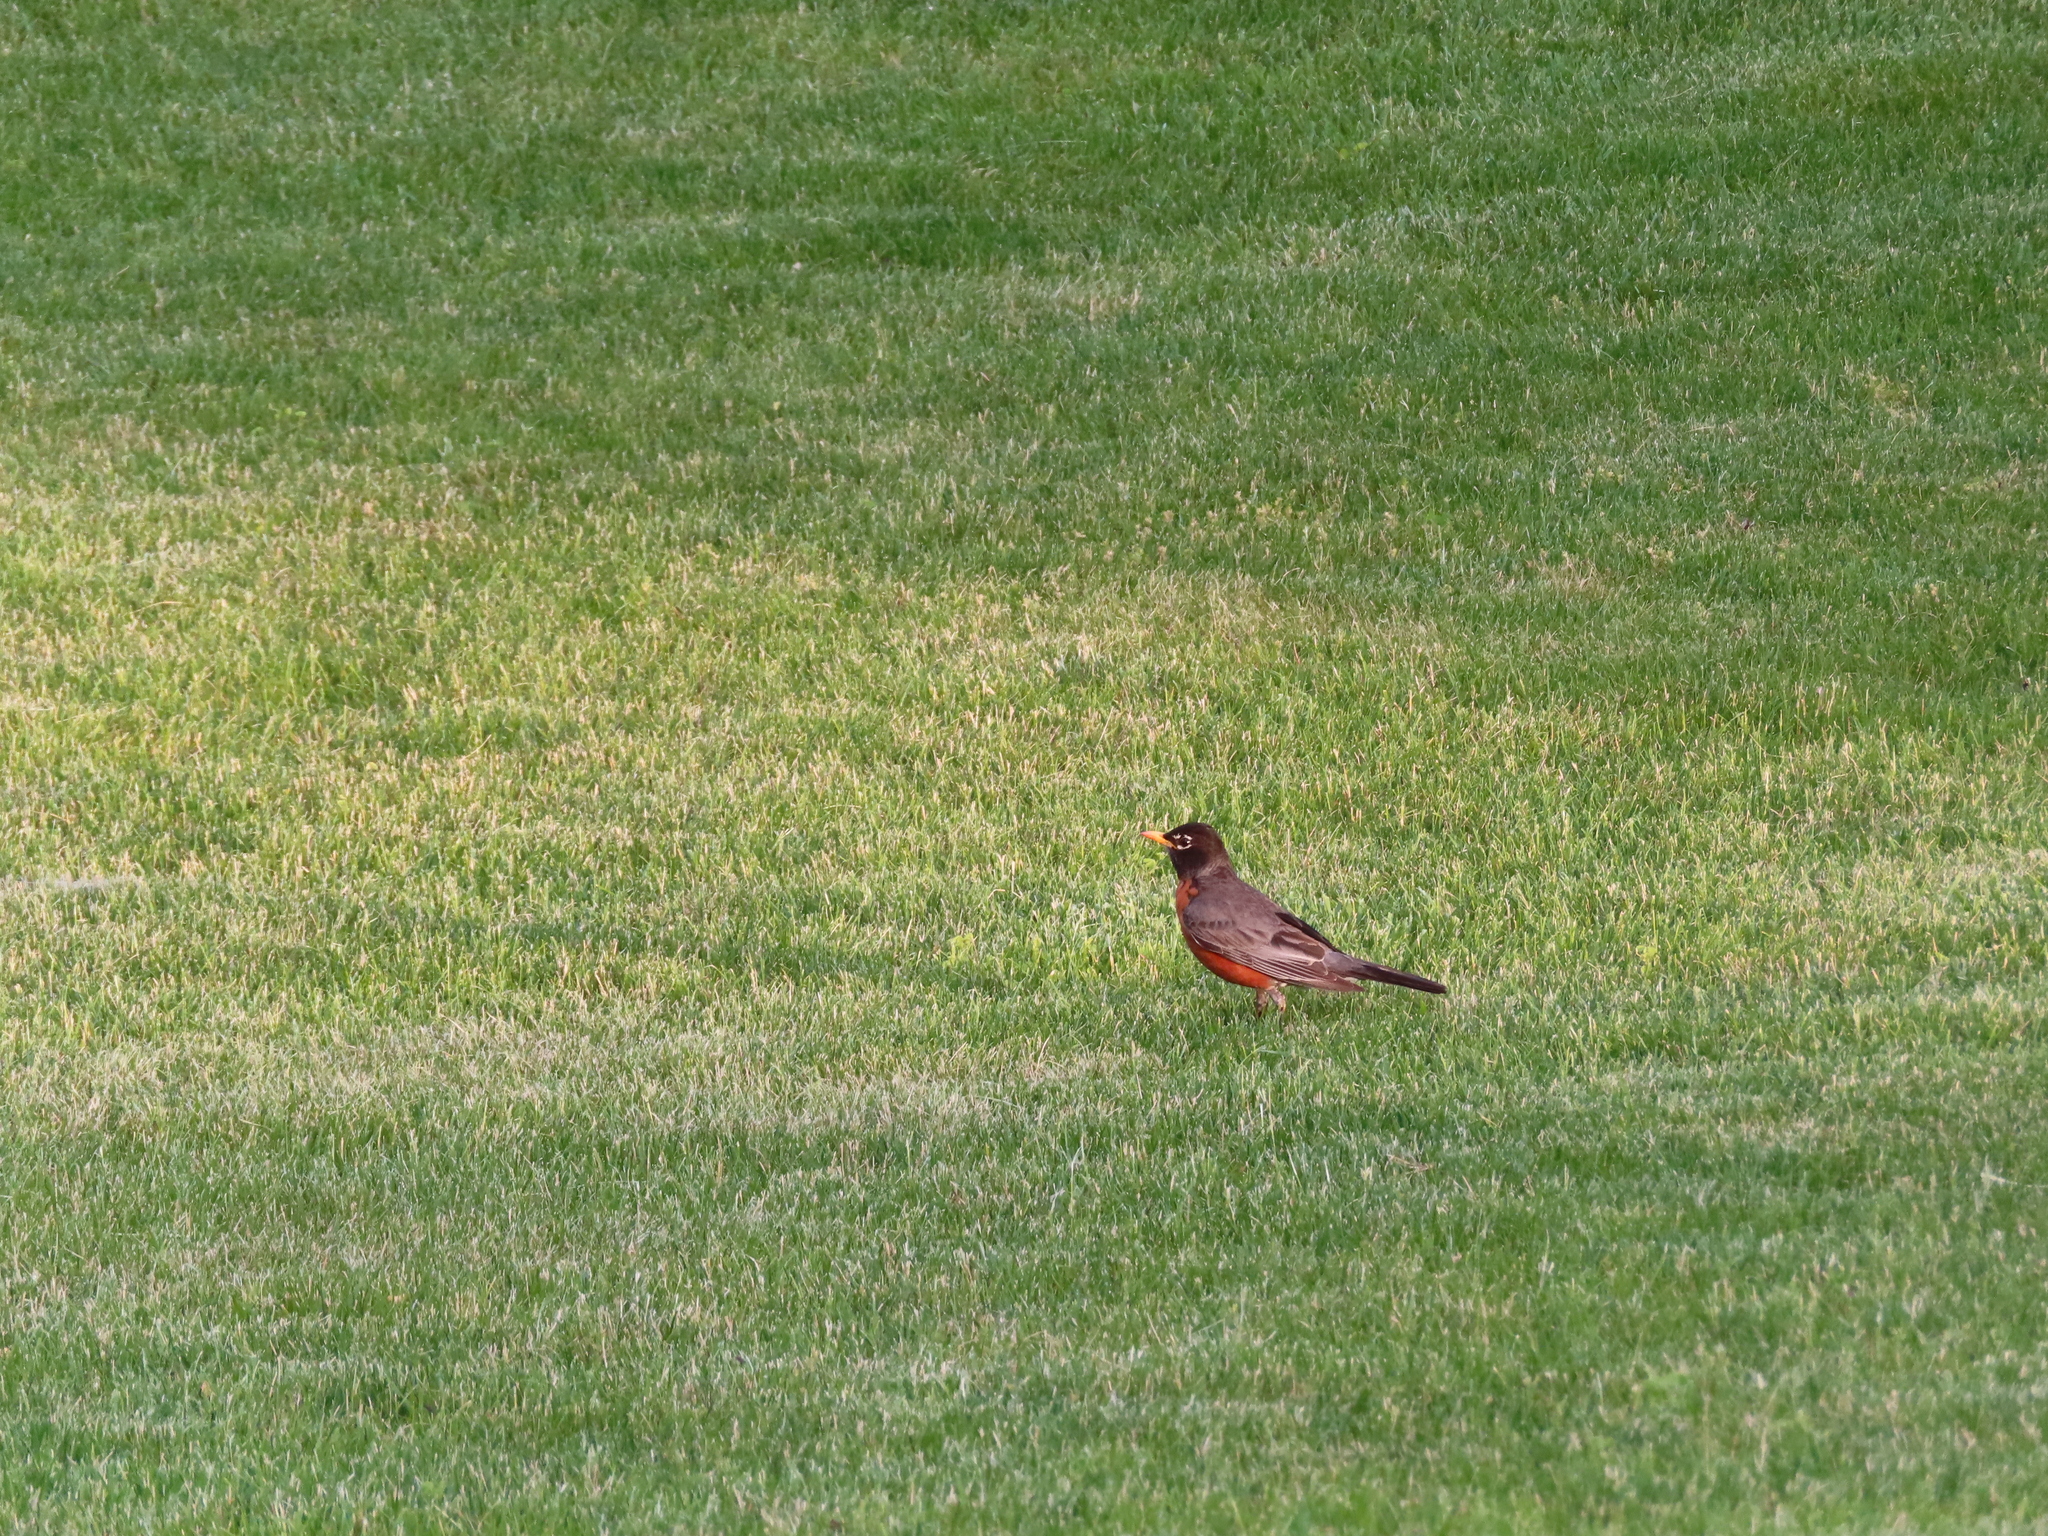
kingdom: Animalia
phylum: Chordata
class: Aves
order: Passeriformes
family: Turdidae
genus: Turdus
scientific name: Turdus migratorius
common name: American robin
